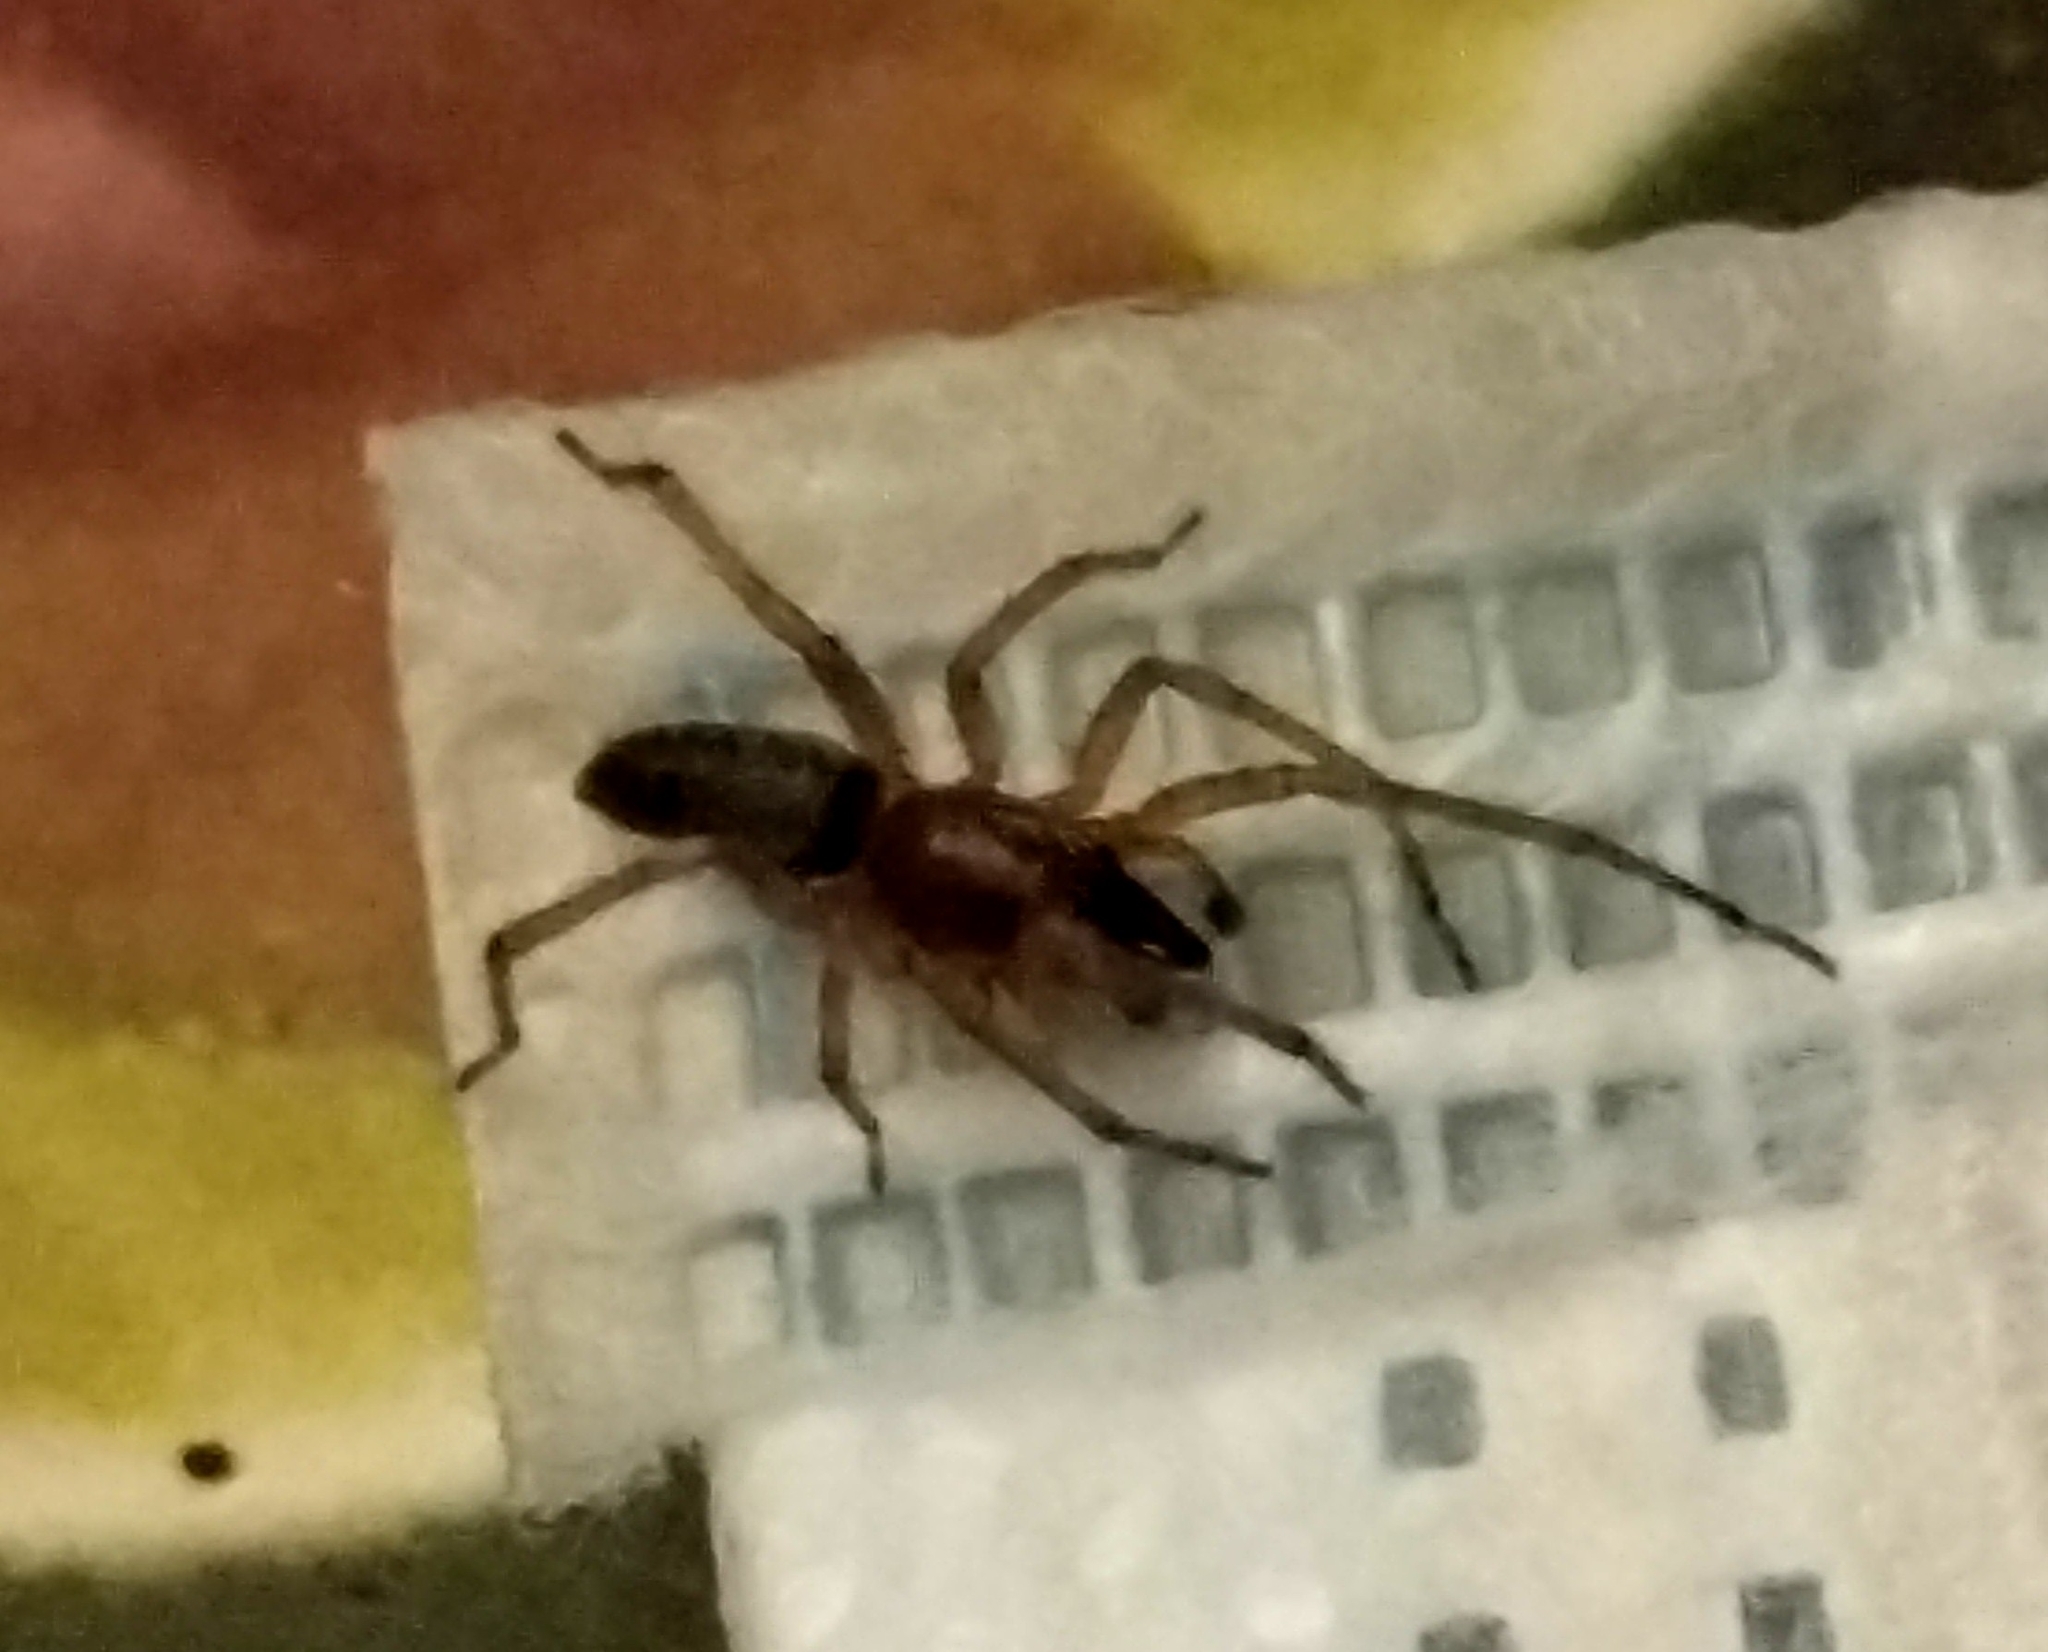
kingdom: Animalia
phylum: Arthropoda
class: Arachnida
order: Araneae
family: Anyphaenidae
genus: Lupettiana
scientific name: Lupettiana mordax
